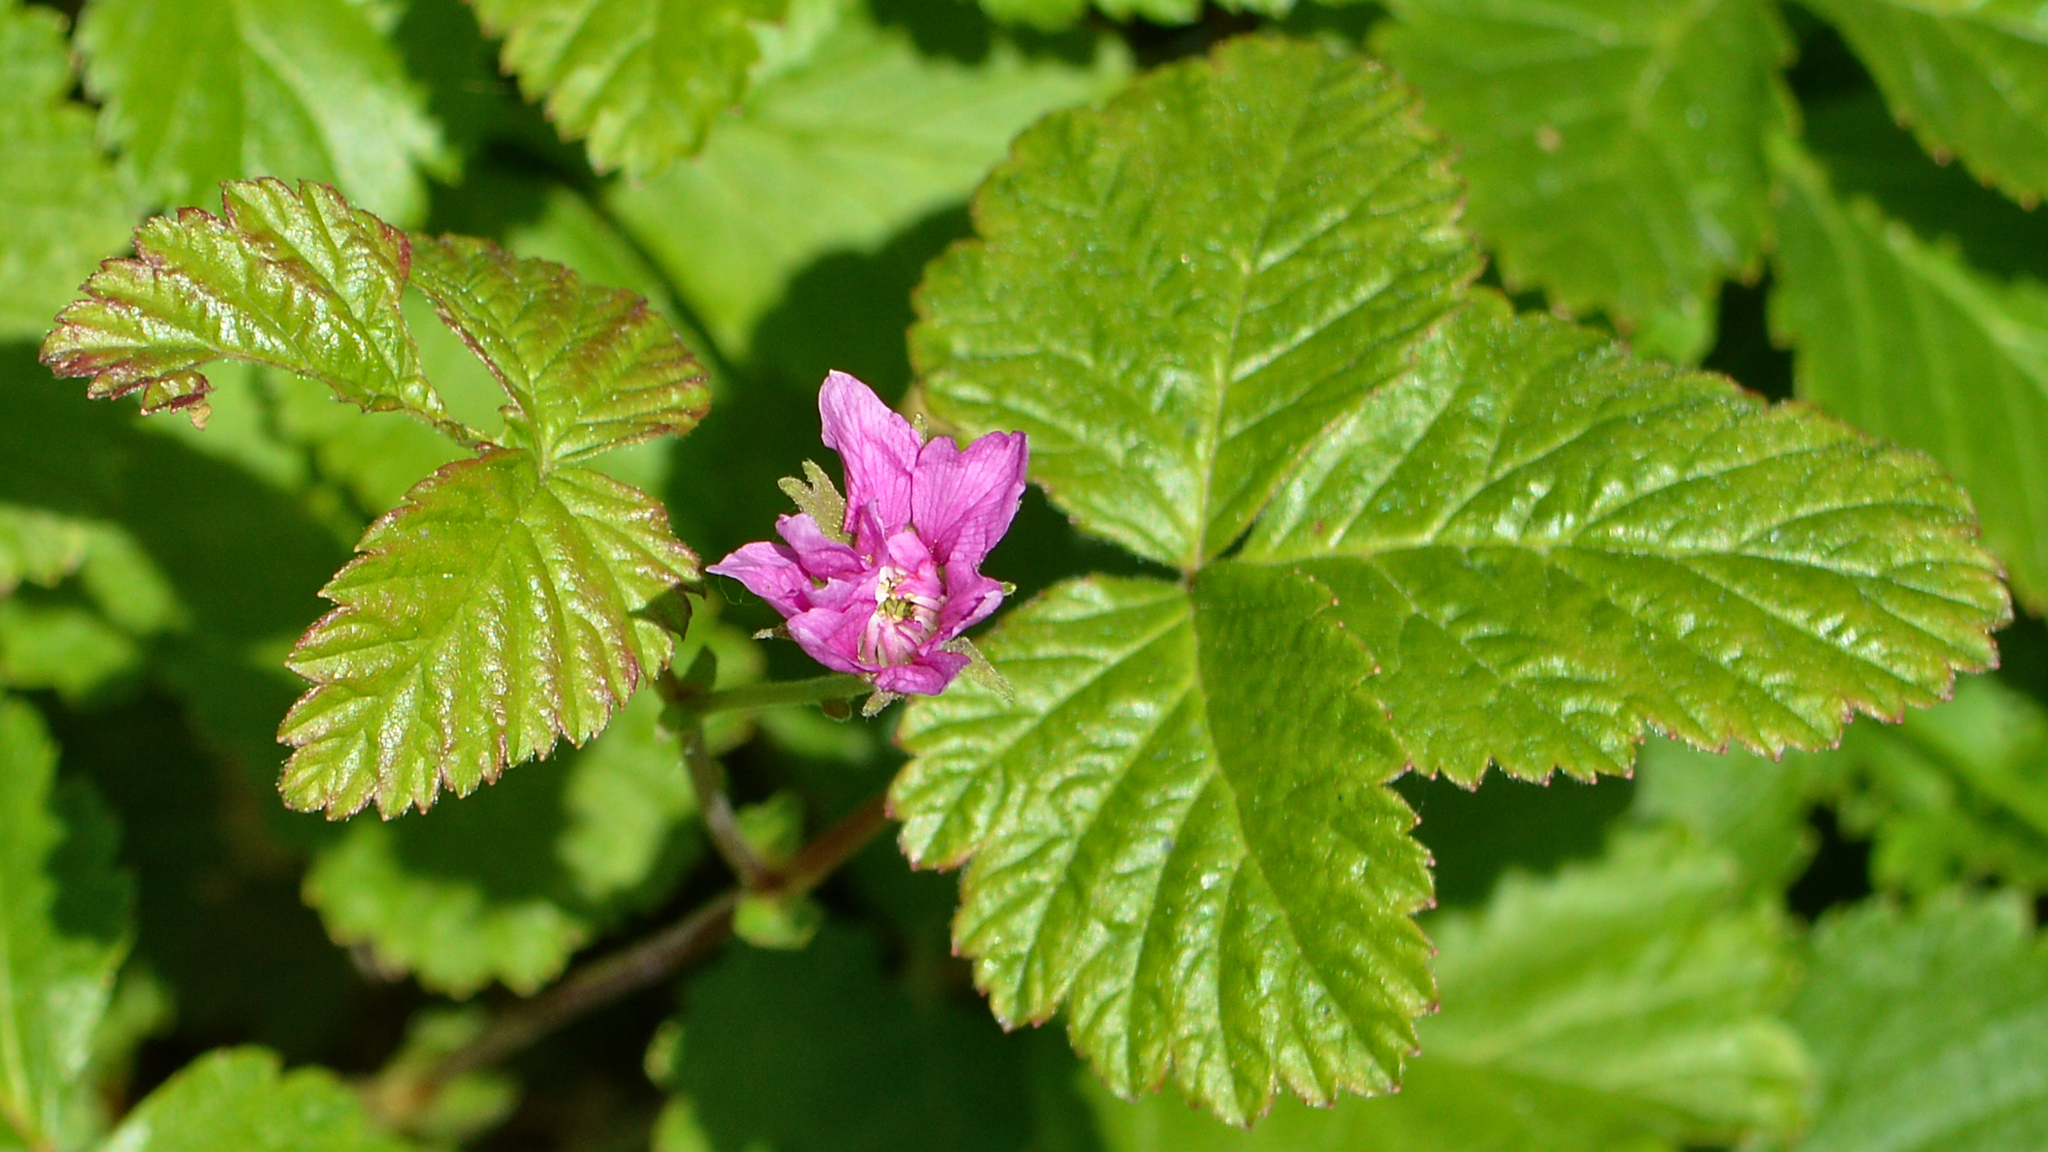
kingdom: Plantae
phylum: Tracheophyta
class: Magnoliopsida
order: Rosales
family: Rosaceae
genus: Rubus
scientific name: Rubus arcticus
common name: Arctic bramble
